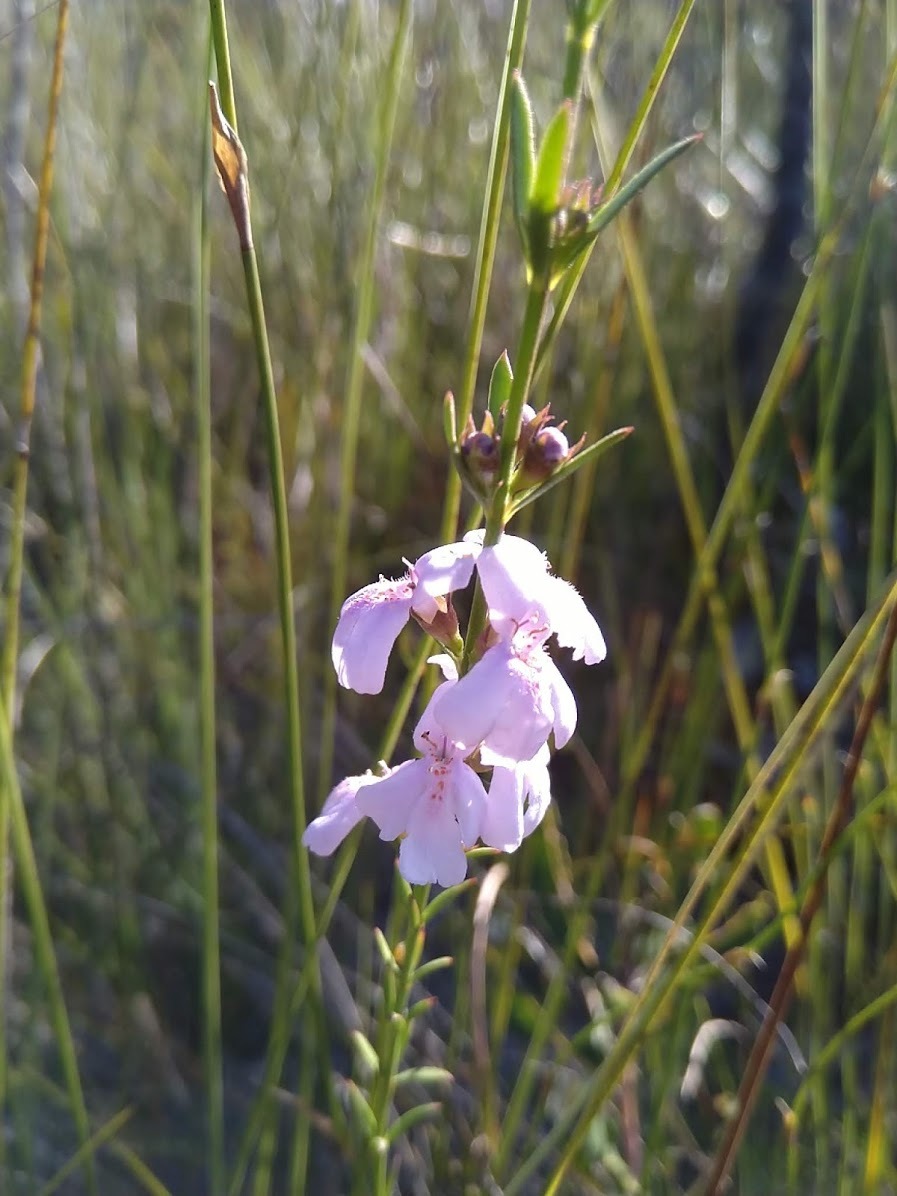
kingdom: Plantae
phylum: Tracheophyta
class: Magnoliopsida
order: Lamiales
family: Lamiaceae
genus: Westringia
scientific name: Westringia tenuicaulis
